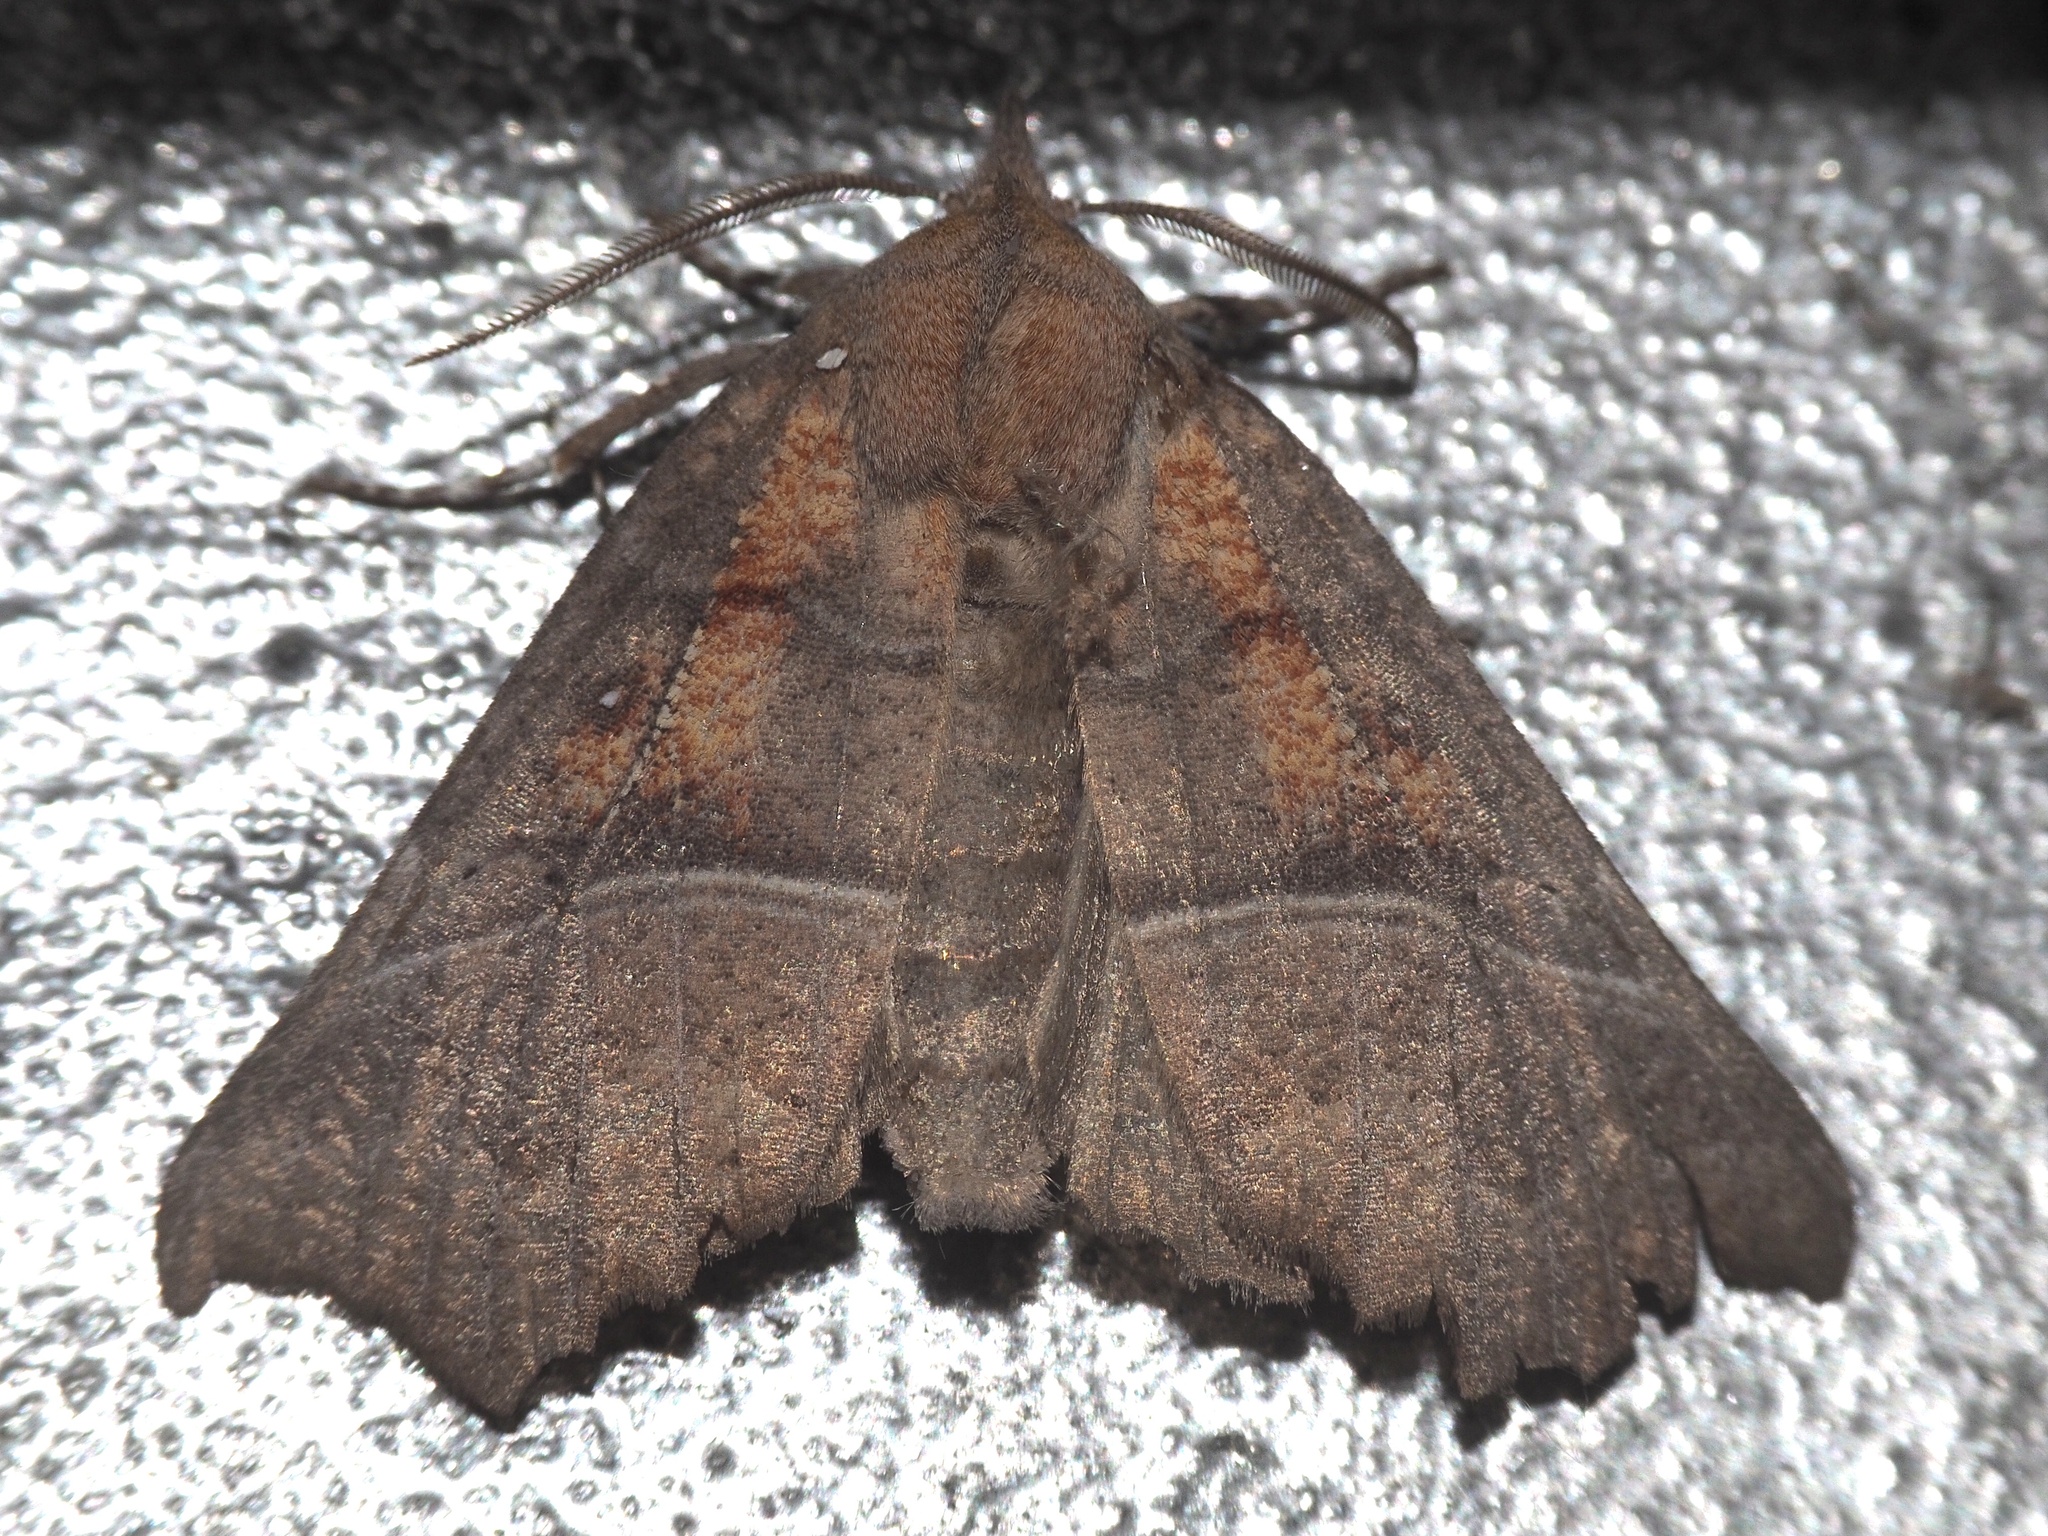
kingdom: Animalia
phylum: Arthropoda
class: Insecta
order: Lepidoptera
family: Erebidae
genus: Scoliopteryx
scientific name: Scoliopteryx libatrix
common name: Herald
